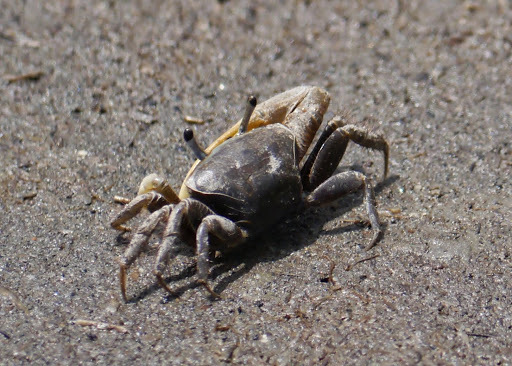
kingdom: Animalia
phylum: Arthropoda
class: Malacostraca
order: Decapoda
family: Ocypodidae
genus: Minuca
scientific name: Minuca pugnax
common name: Mud fiddler crab
